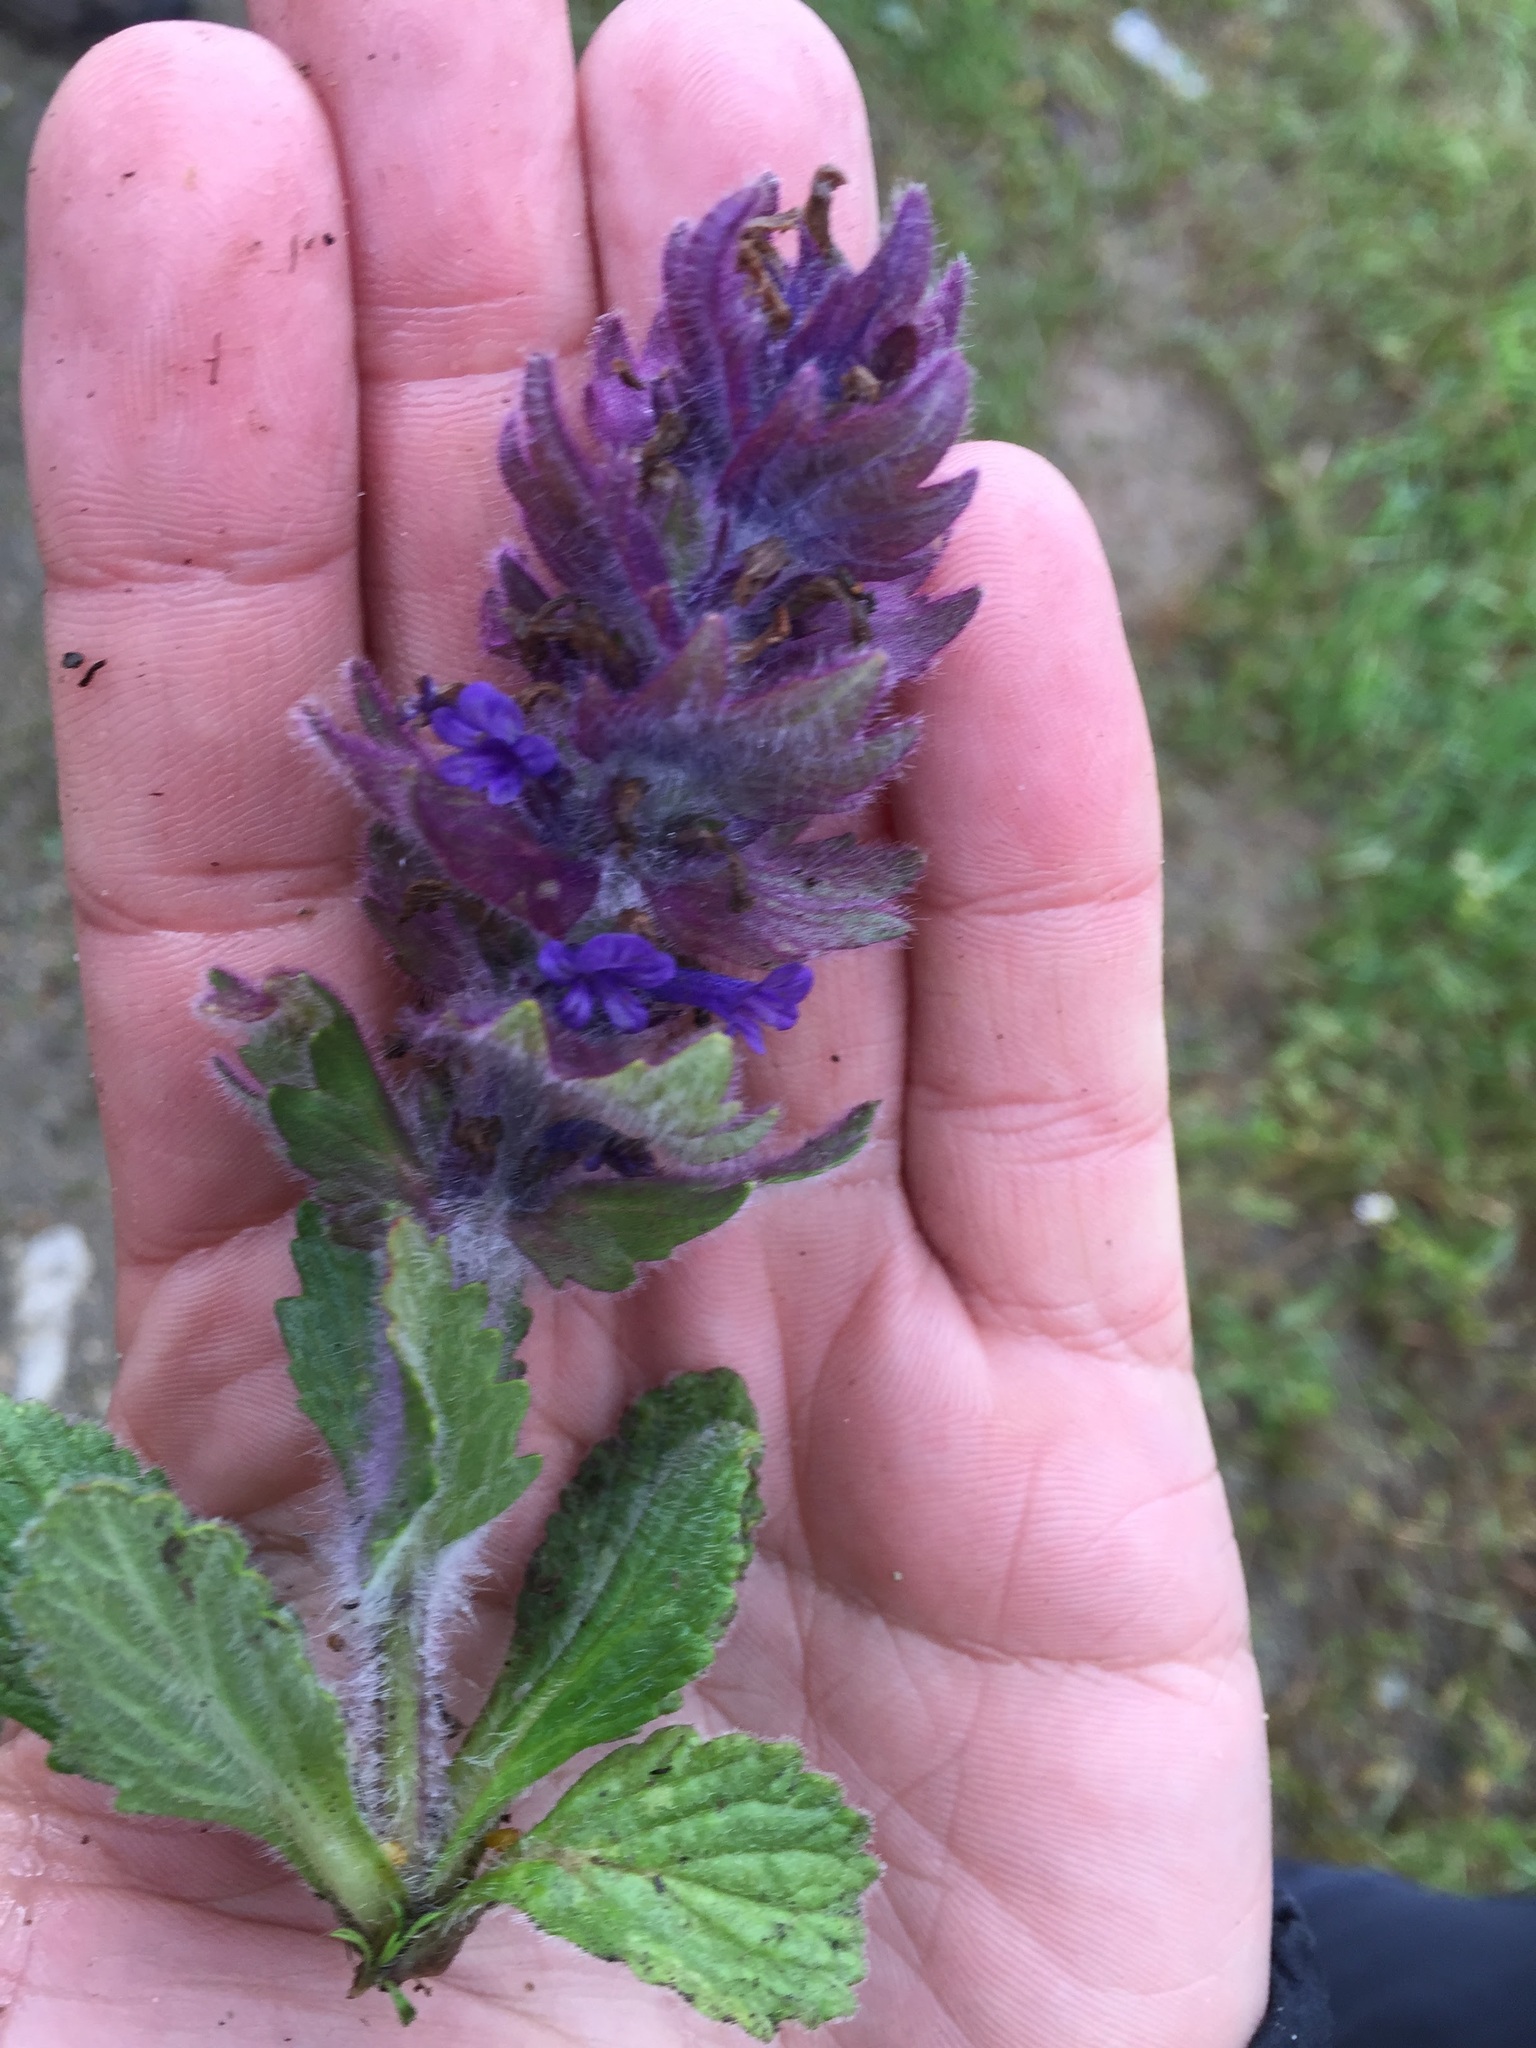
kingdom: Plantae
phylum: Tracheophyta
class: Magnoliopsida
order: Lamiales
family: Lamiaceae
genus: Ajuga
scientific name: Ajuga orientalis
